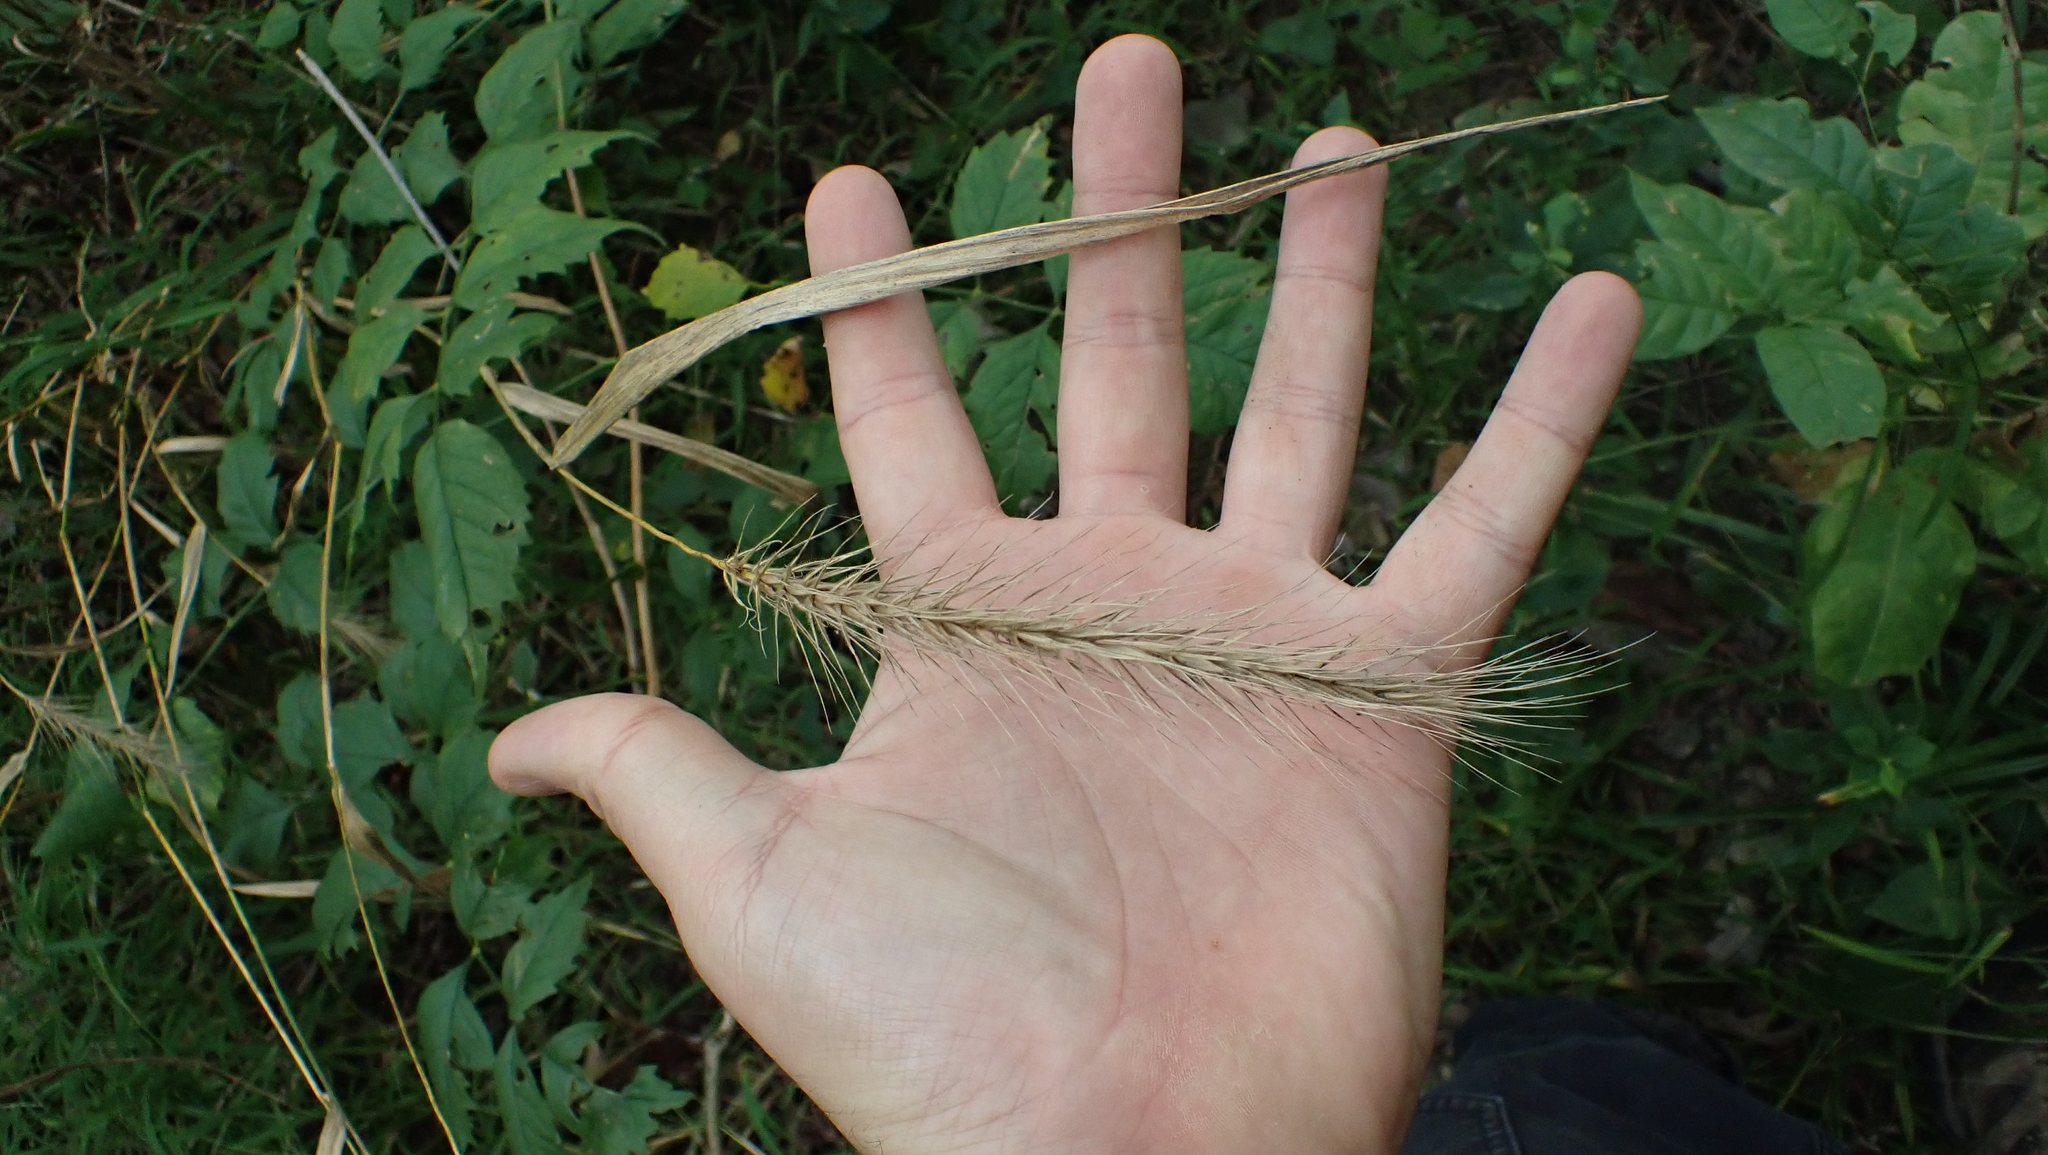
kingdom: Plantae
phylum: Tracheophyta
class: Liliopsida
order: Poales
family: Poaceae
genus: Elymus
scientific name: Elymus villosus
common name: Downy wild rye
